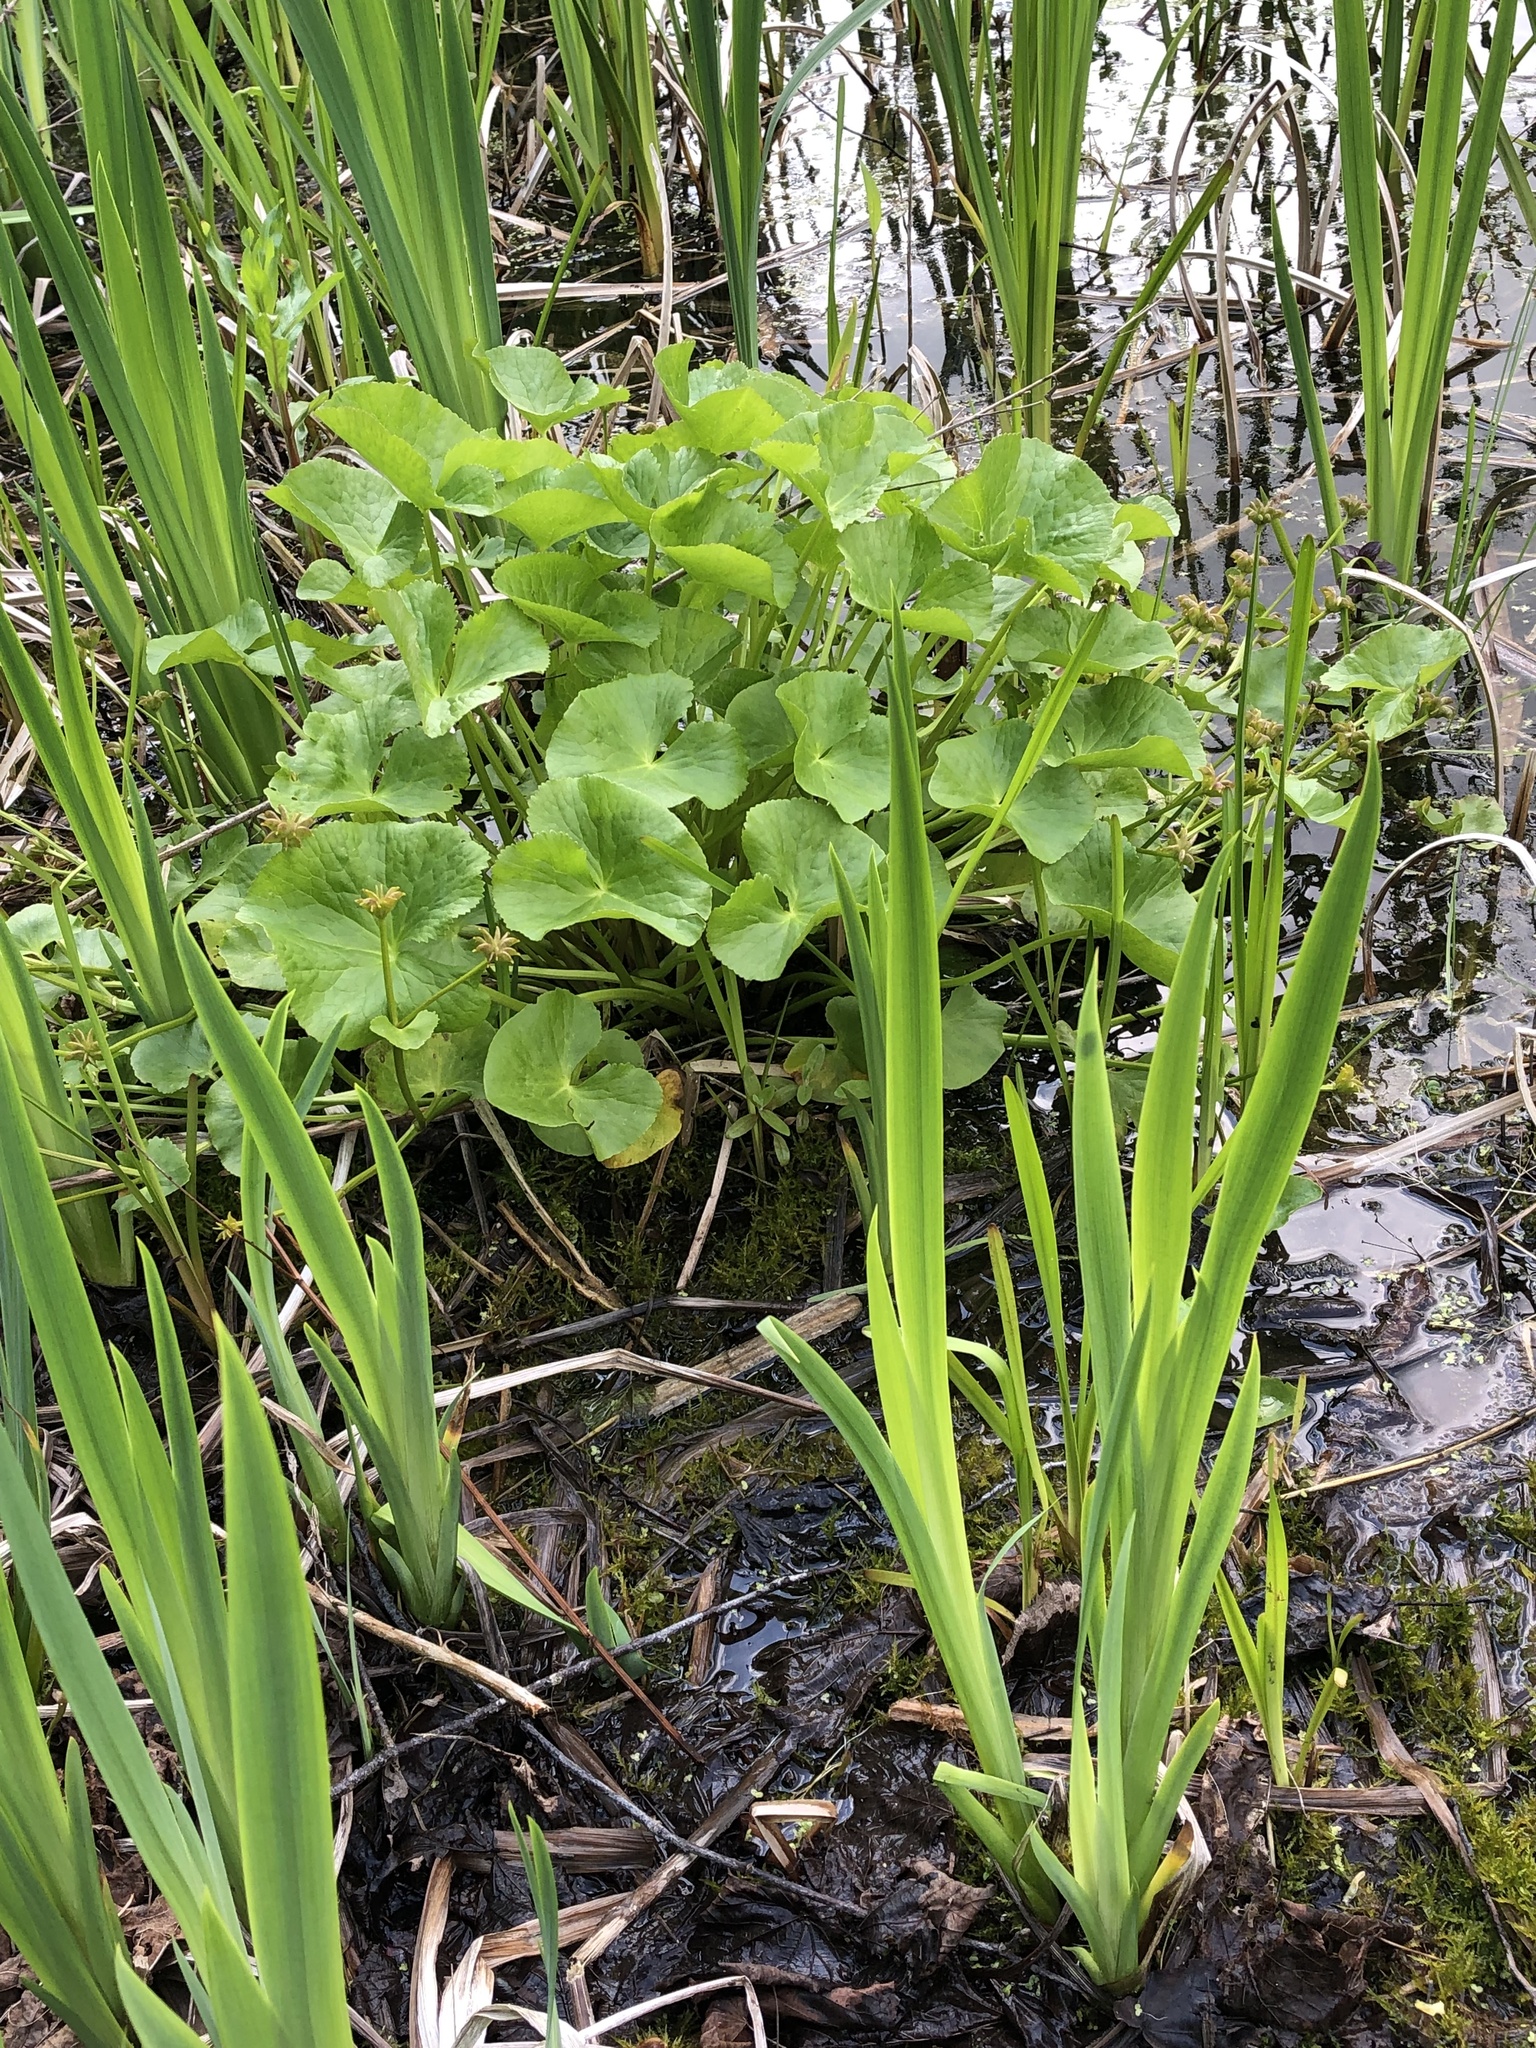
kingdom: Plantae
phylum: Tracheophyta
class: Magnoliopsida
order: Ranunculales
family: Ranunculaceae
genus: Caltha
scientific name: Caltha palustris
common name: Marsh marigold
